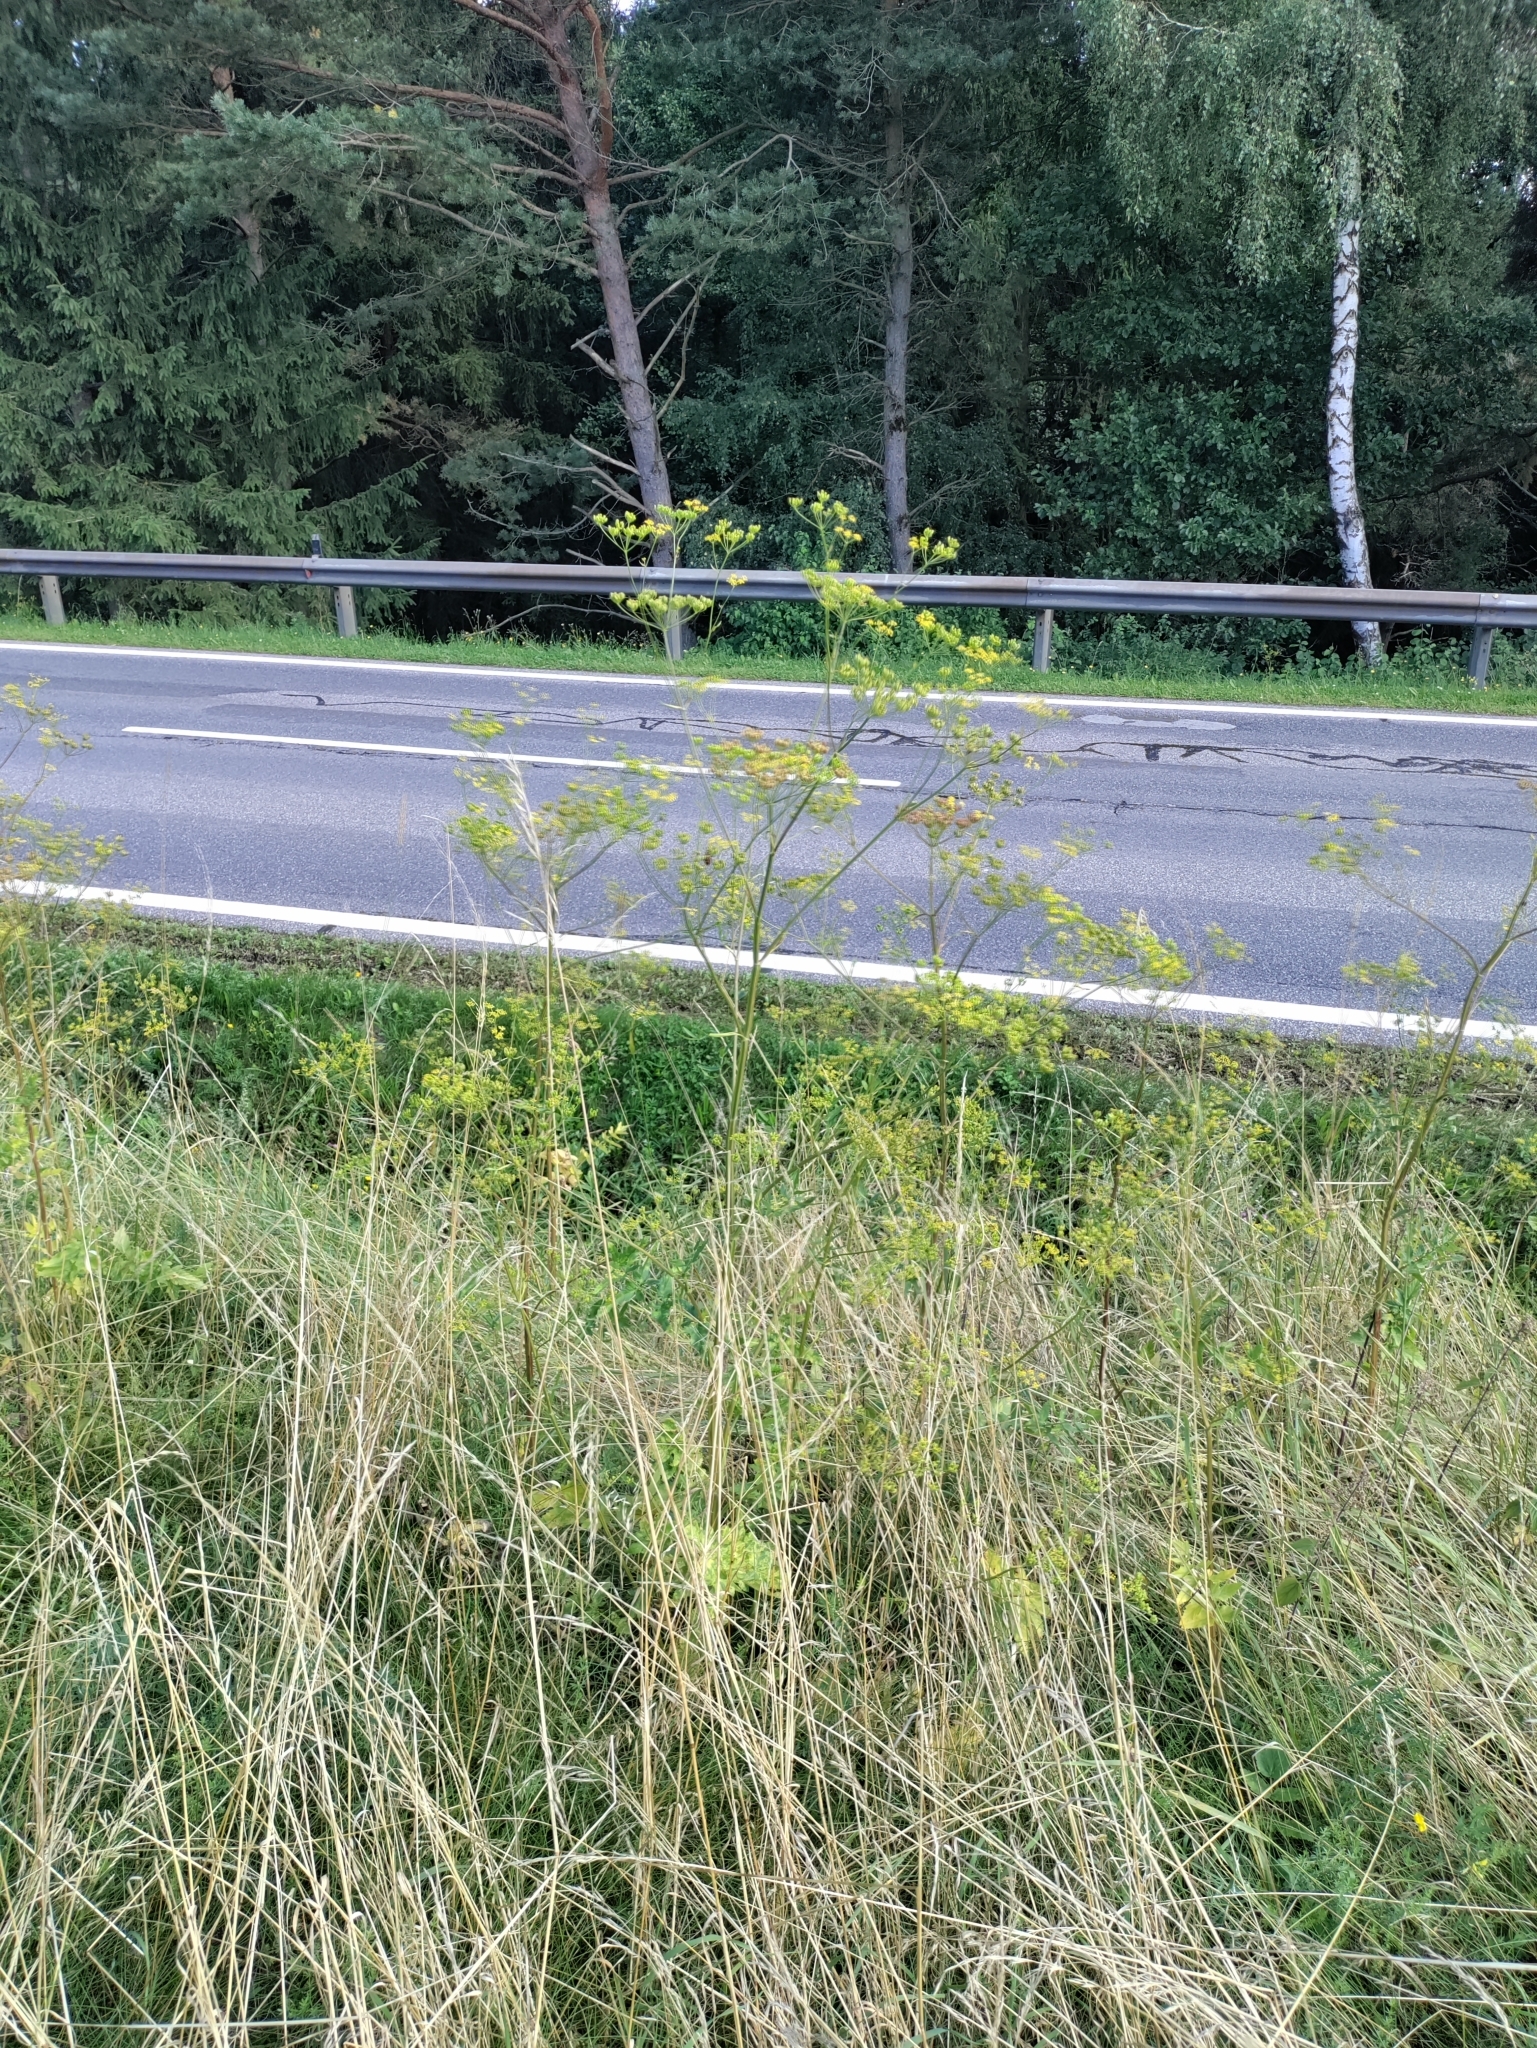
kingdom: Plantae
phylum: Tracheophyta
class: Magnoliopsida
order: Apiales
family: Apiaceae
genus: Pastinaca
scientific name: Pastinaca sativa
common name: Wild parsnip
